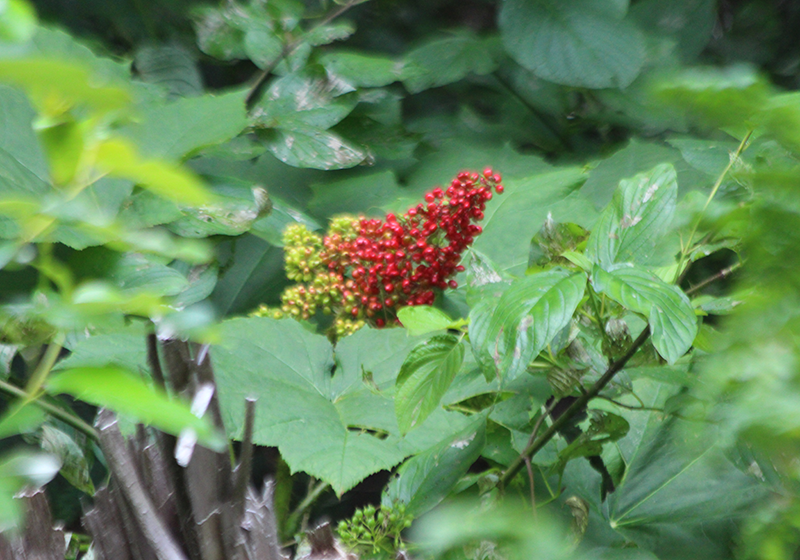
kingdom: Plantae
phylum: Tracheophyta
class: Magnoliopsida
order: Apiales
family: Araliaceae
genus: Oplopanax
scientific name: Oplopanax horridus
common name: Devil's walking-stick
